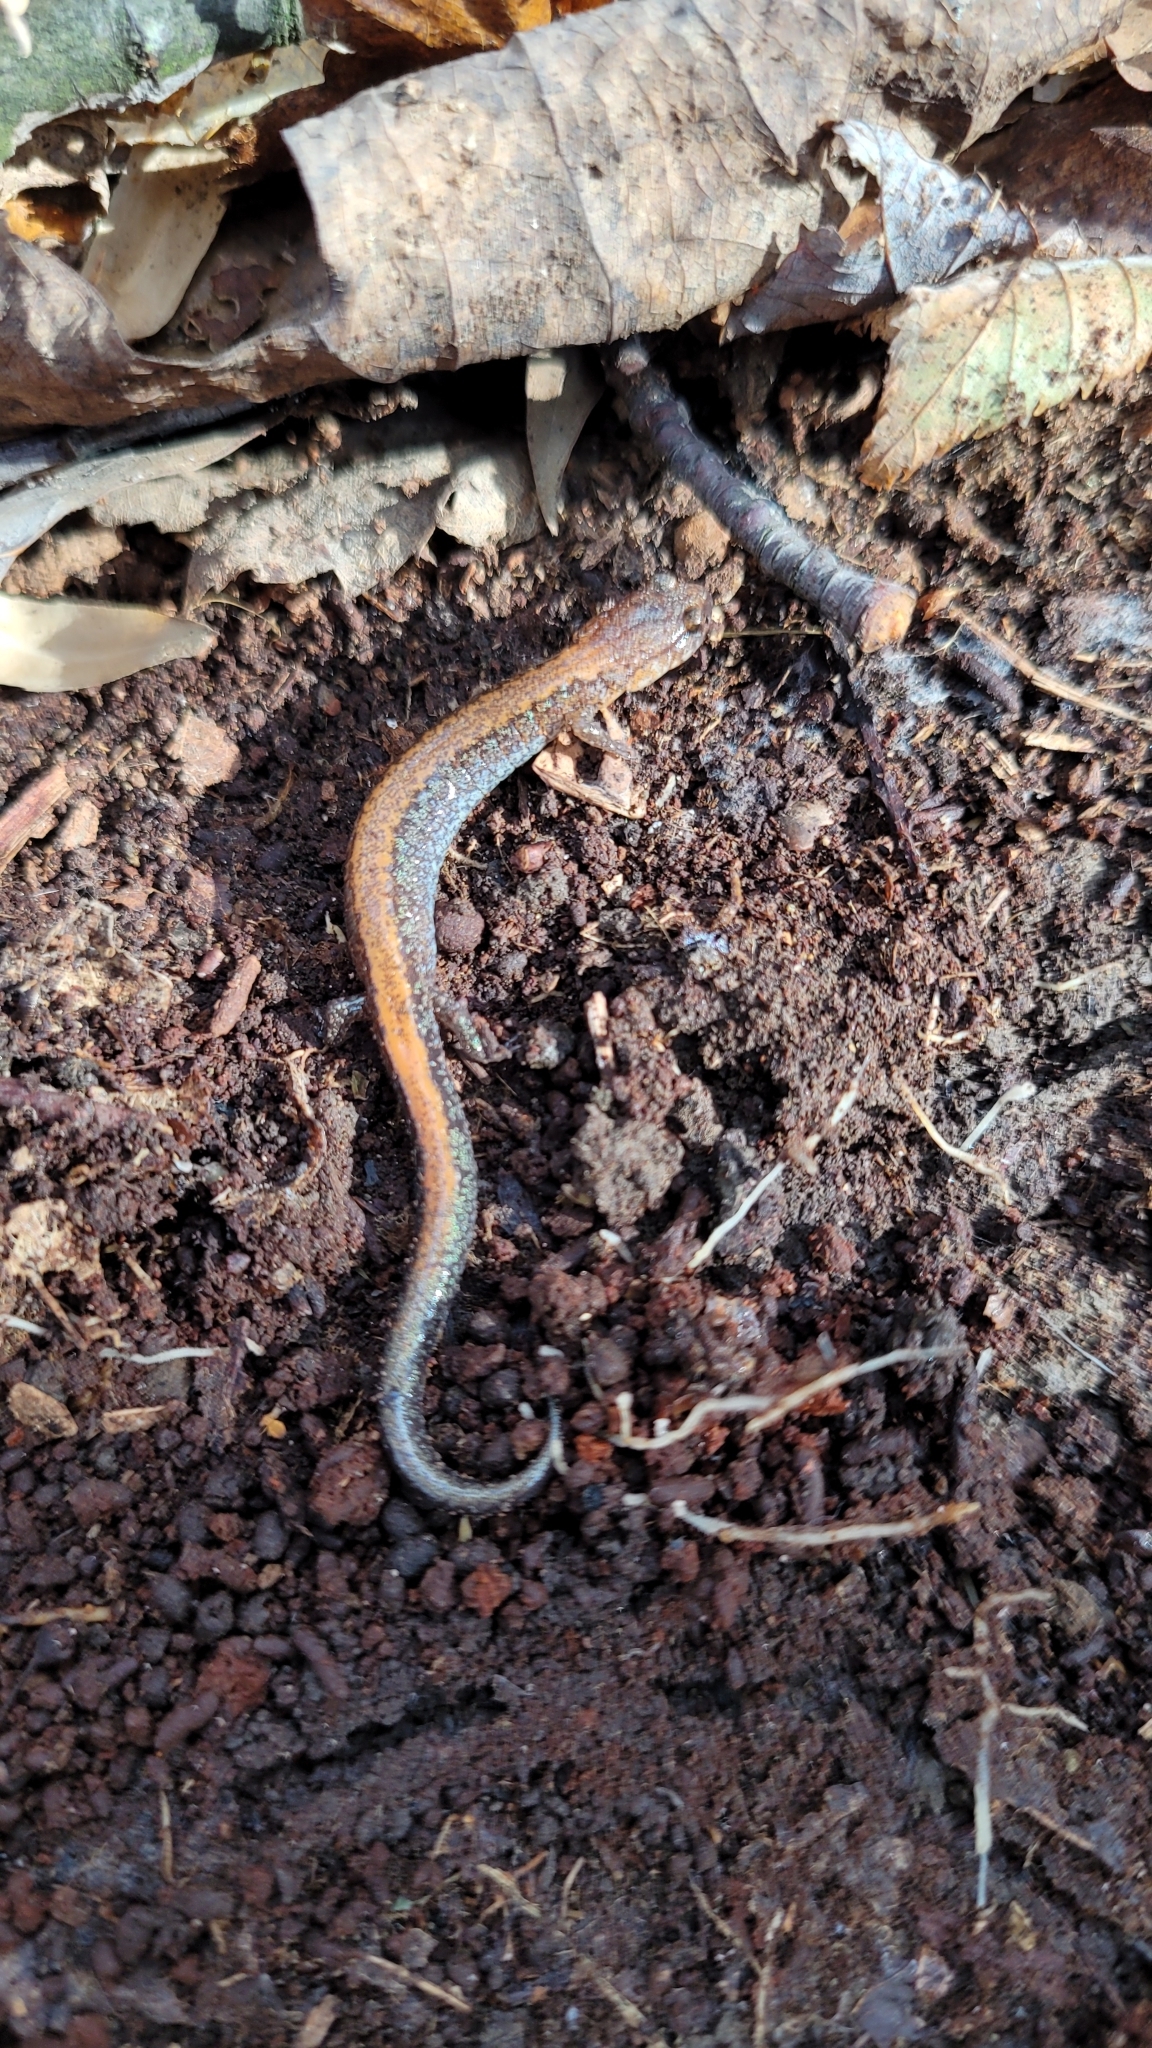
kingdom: Animalia
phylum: Chordata
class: Amphibia
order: Caudata
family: Plethodontidae
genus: Plethodon
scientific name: Plethodon cinereus
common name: Redback salamander
